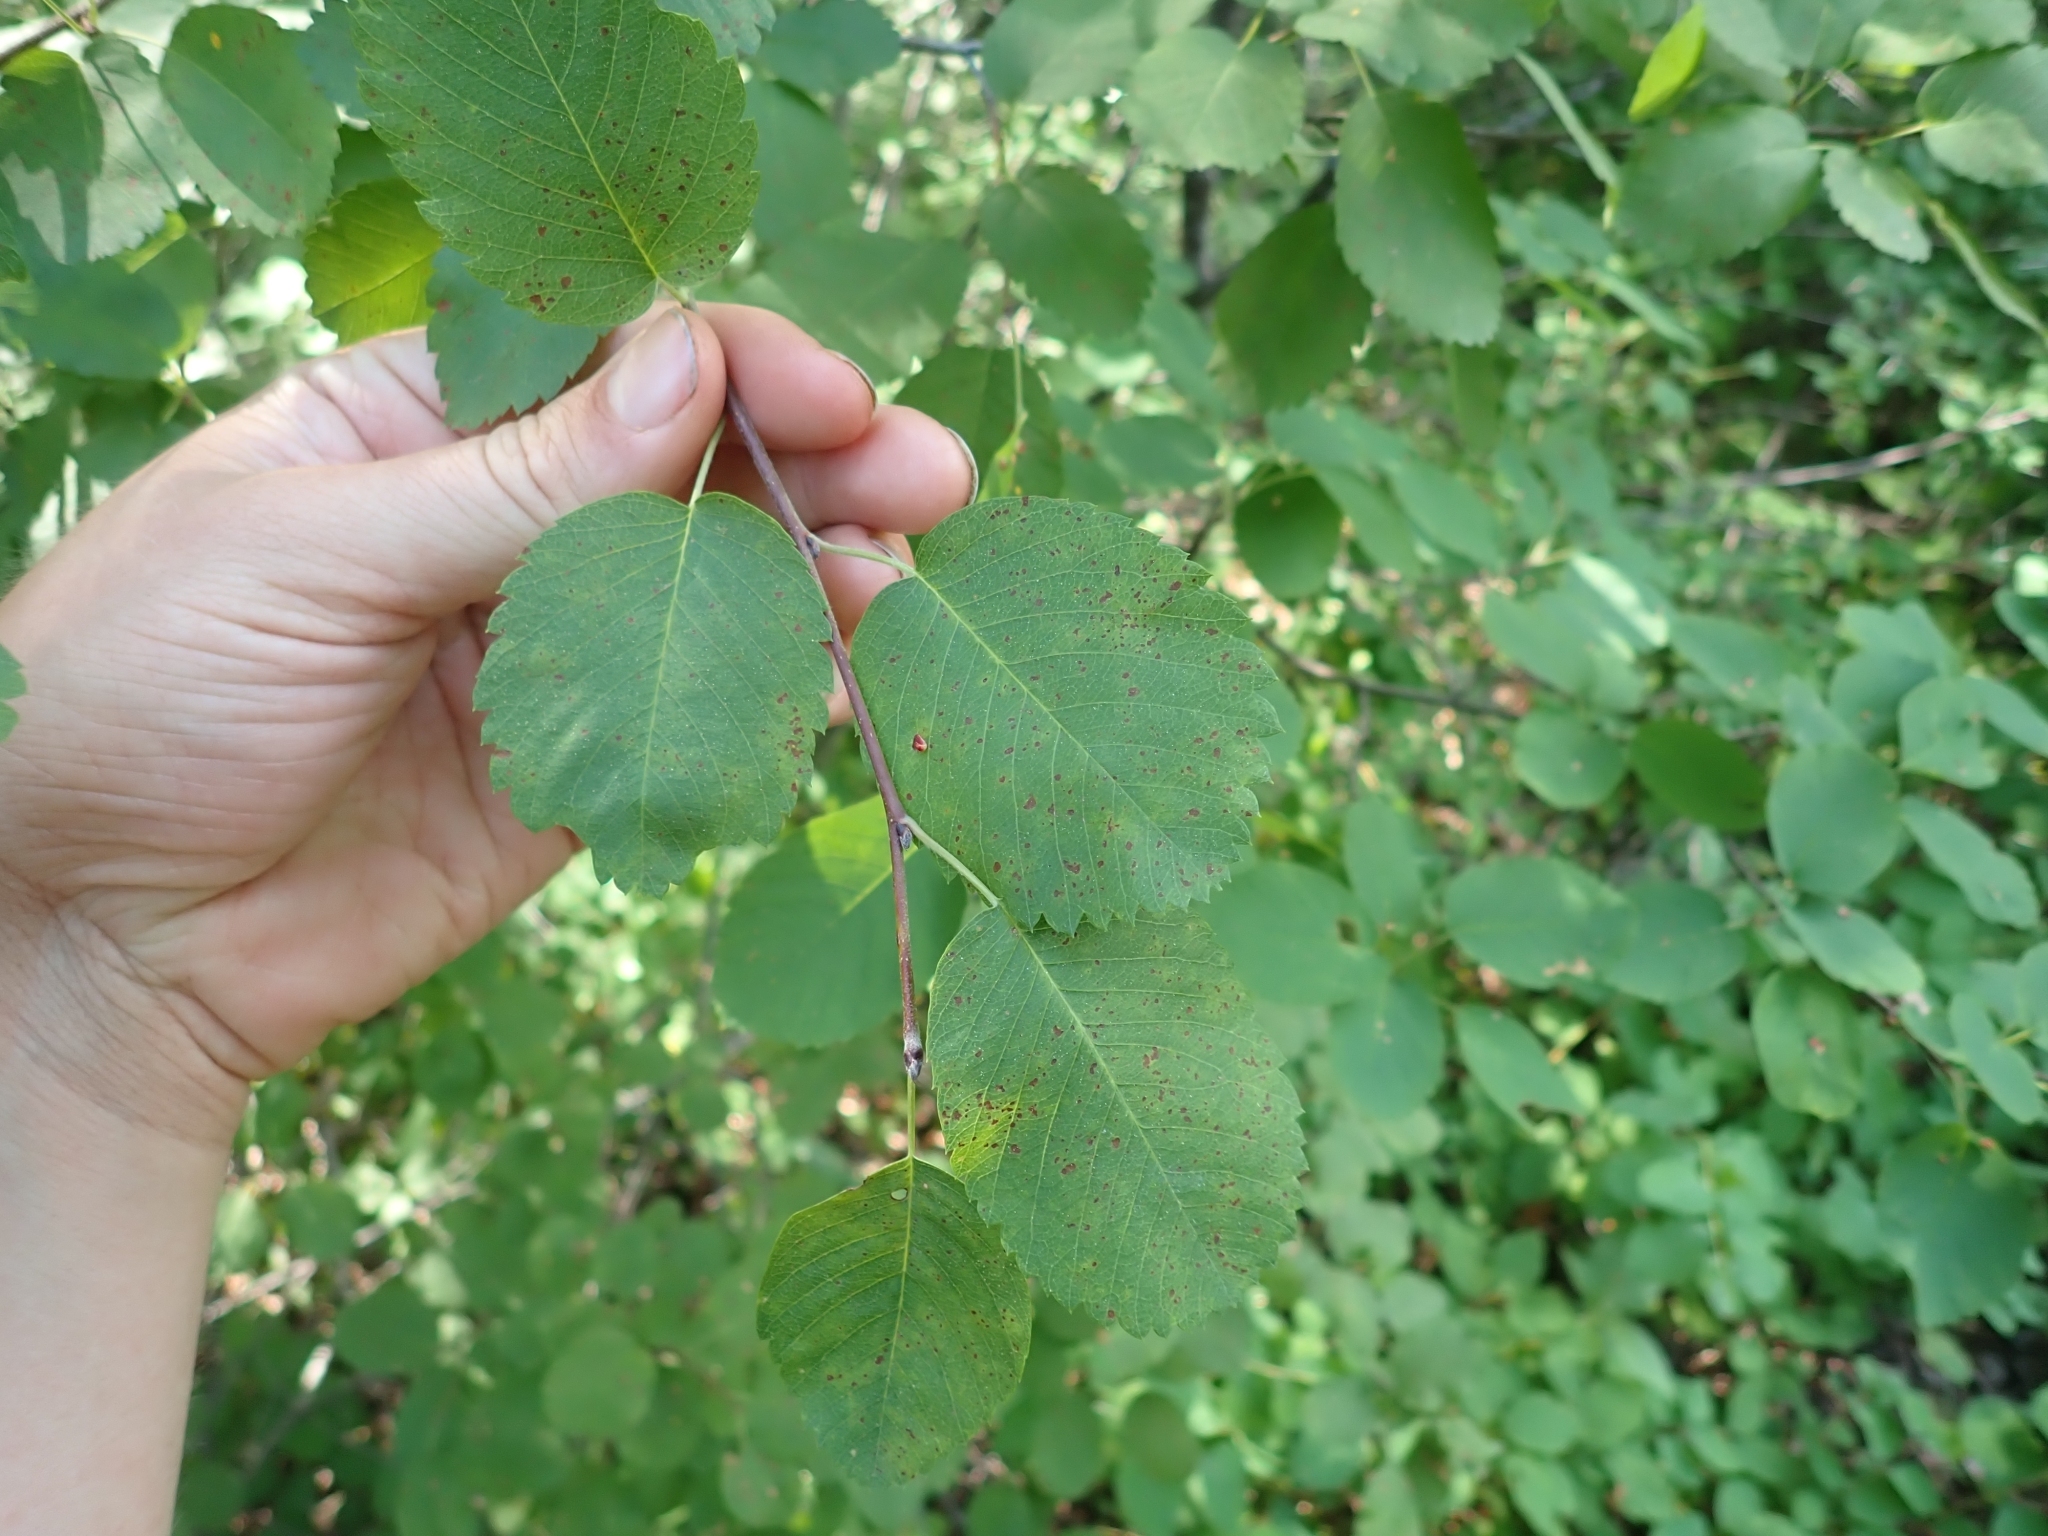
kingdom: Plantae
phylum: Tracheophyta
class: Magnoliopsida
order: Rosales
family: Rosaceae
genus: Amelanchier
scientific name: Amelanchier alnifolia
